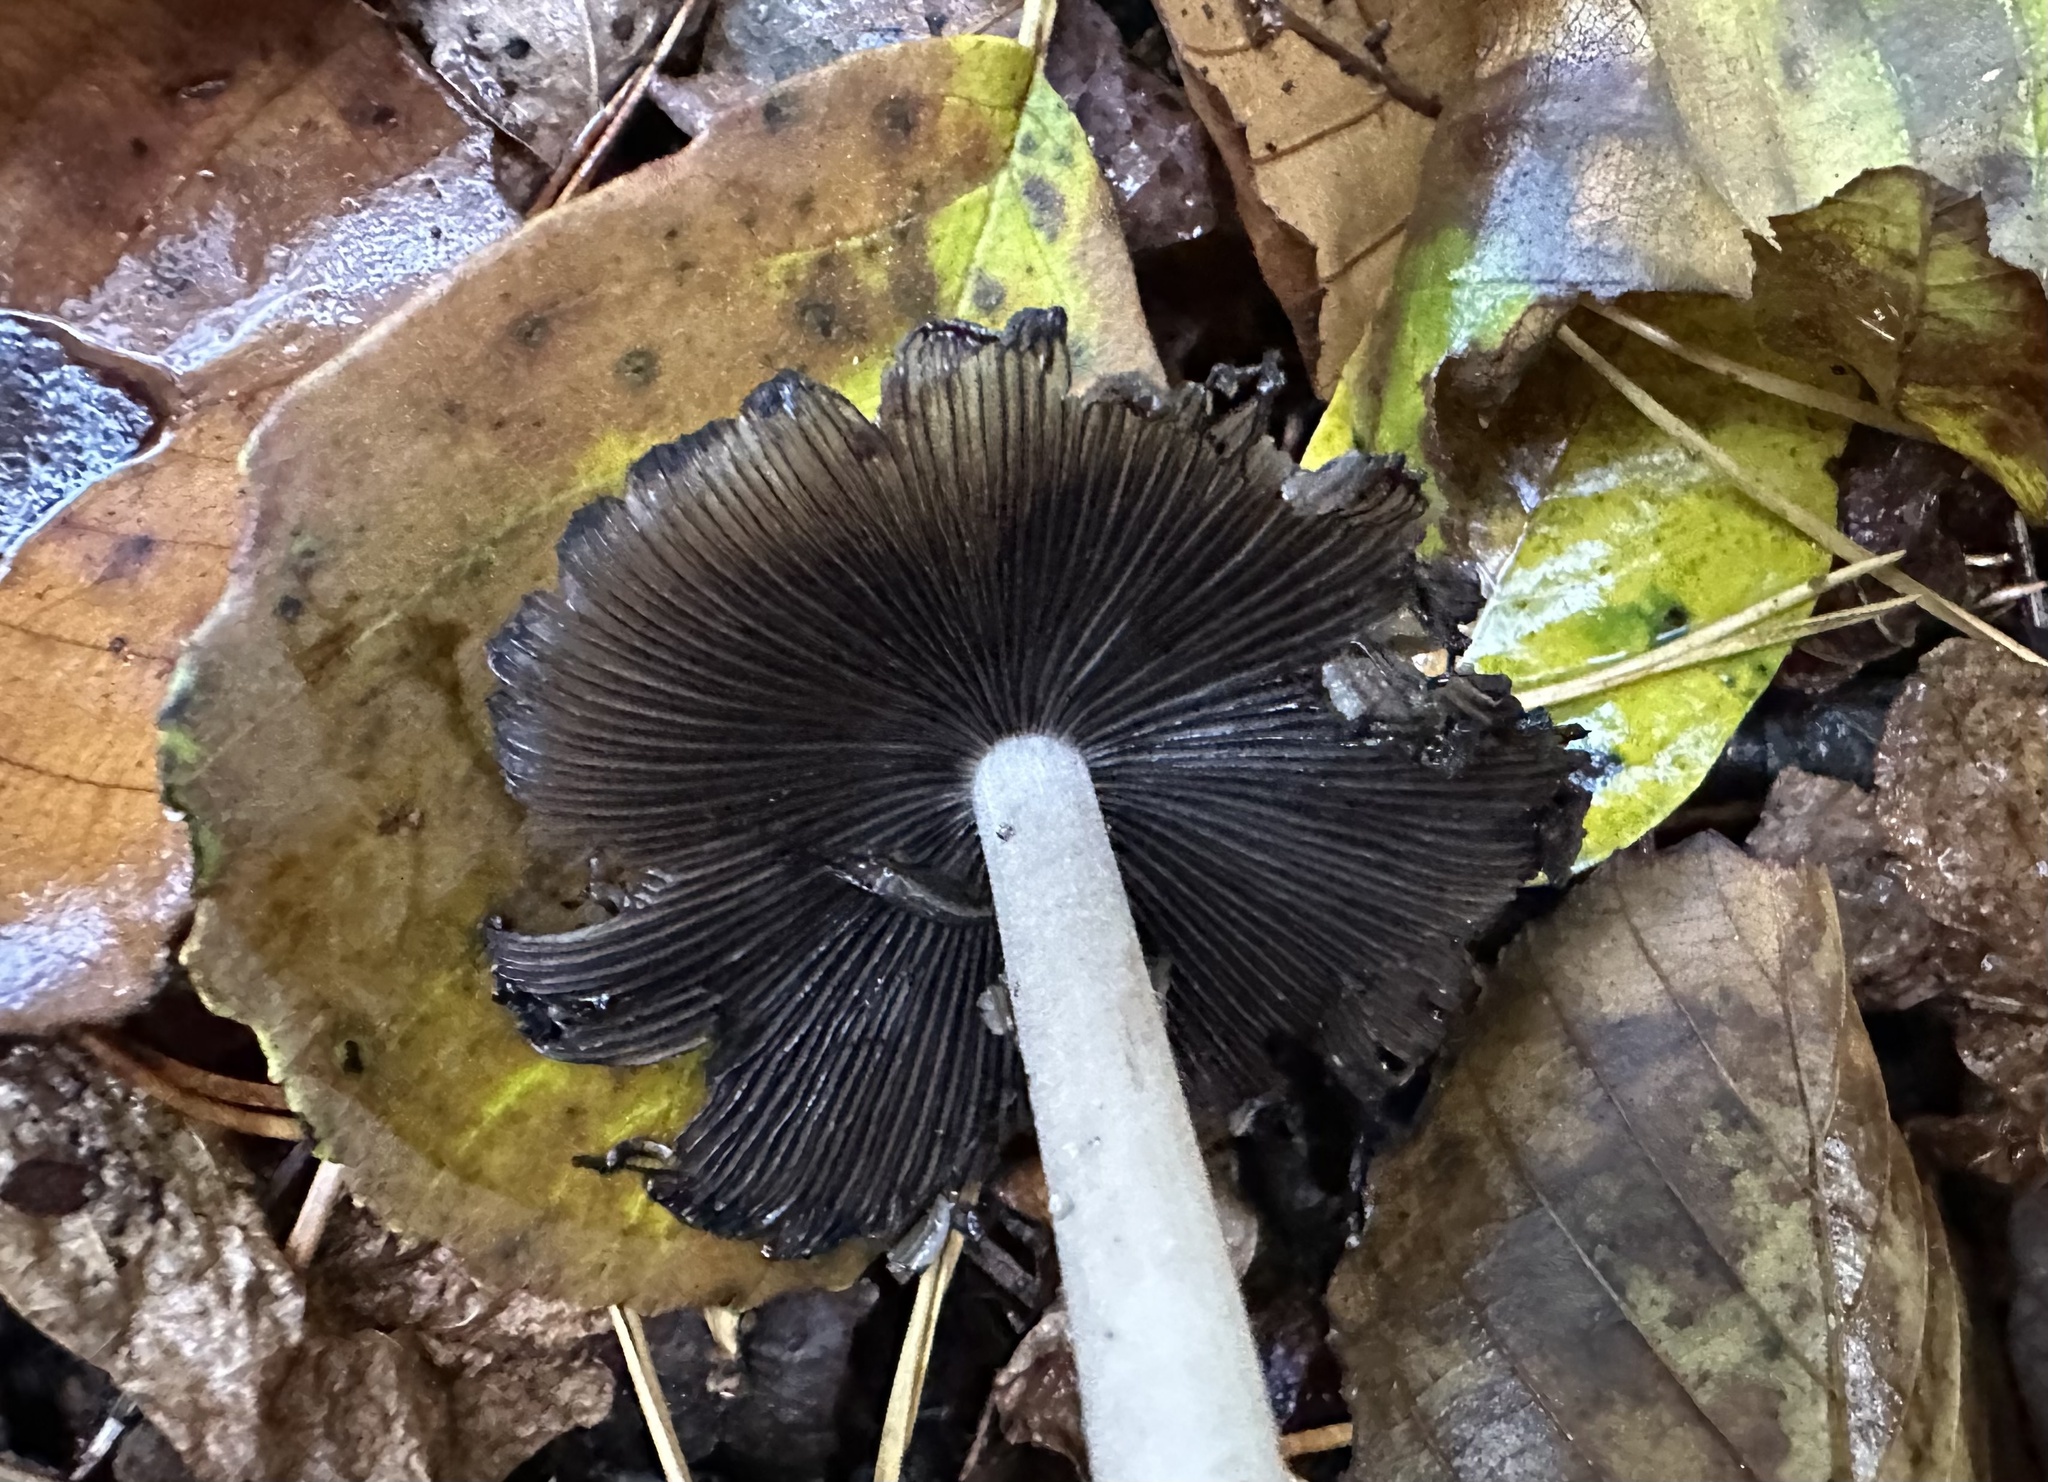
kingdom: Fungi
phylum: Basidiomycota
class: Agaricomycetes
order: Agaricales
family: Psathyrellaceae
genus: Coprinellus
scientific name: Coprinellus micaceus
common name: Glistening ink-cap
